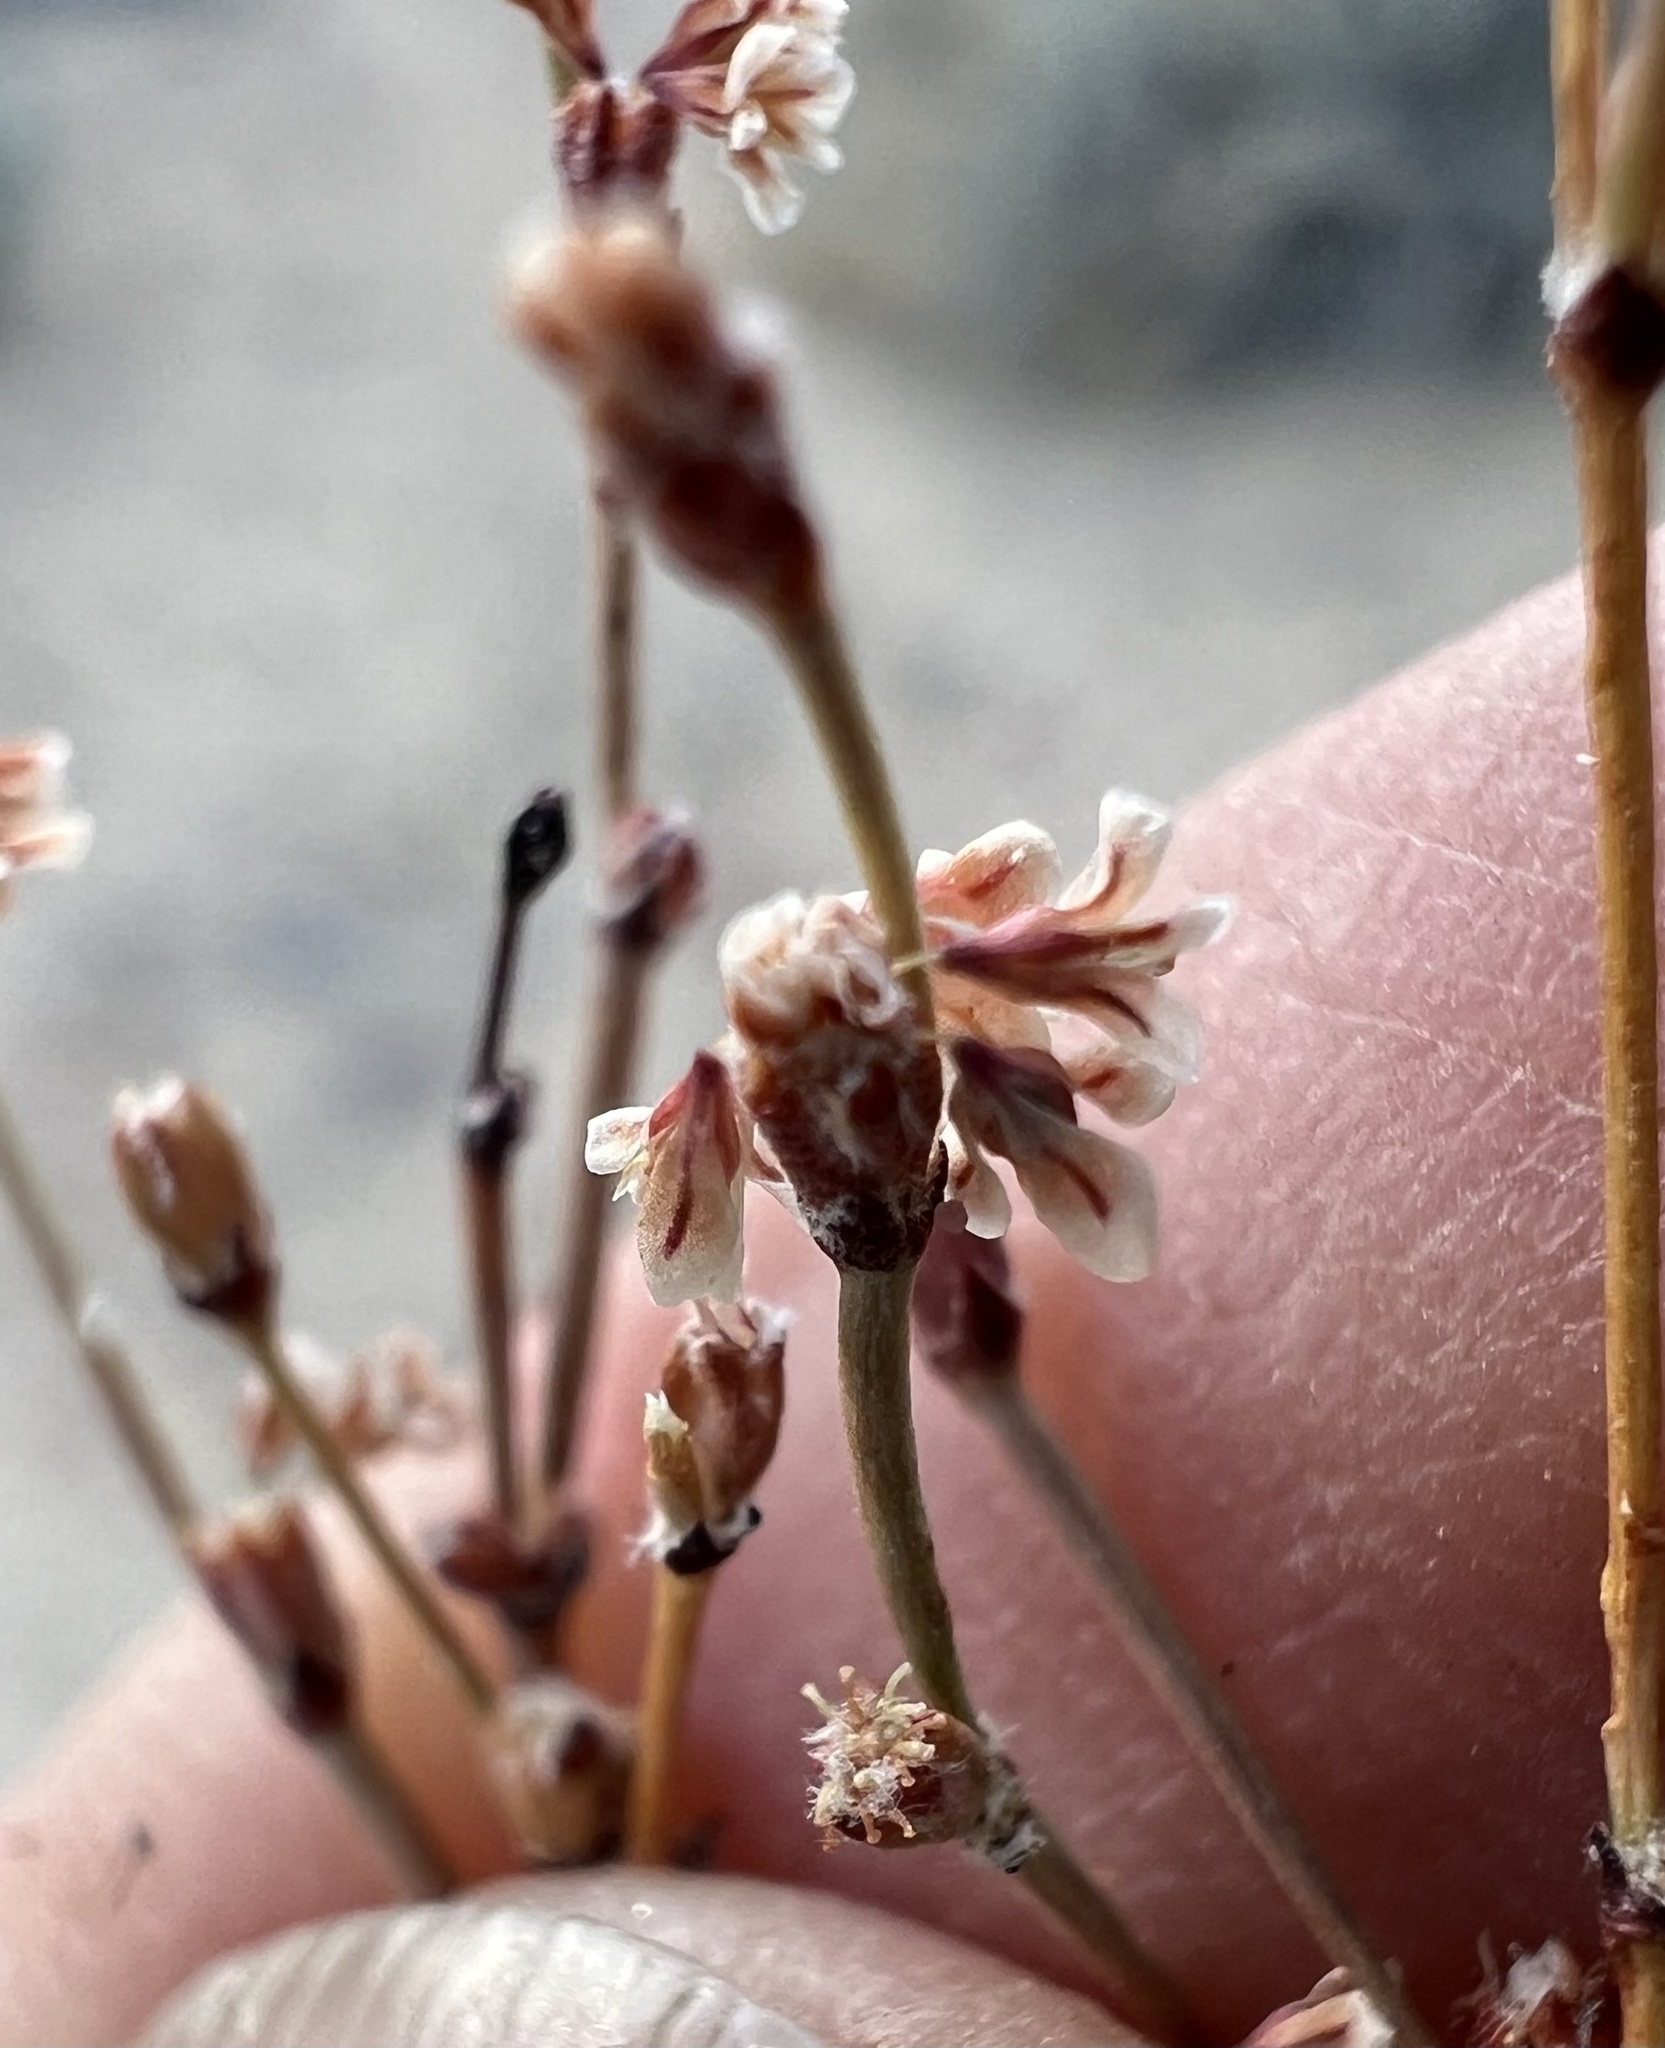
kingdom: Plantae
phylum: Tracheophyta
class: Magnoliopsida
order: Caryophyllales
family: Polygonaceae
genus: Eriogonum
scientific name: Eriogonum baileyi
